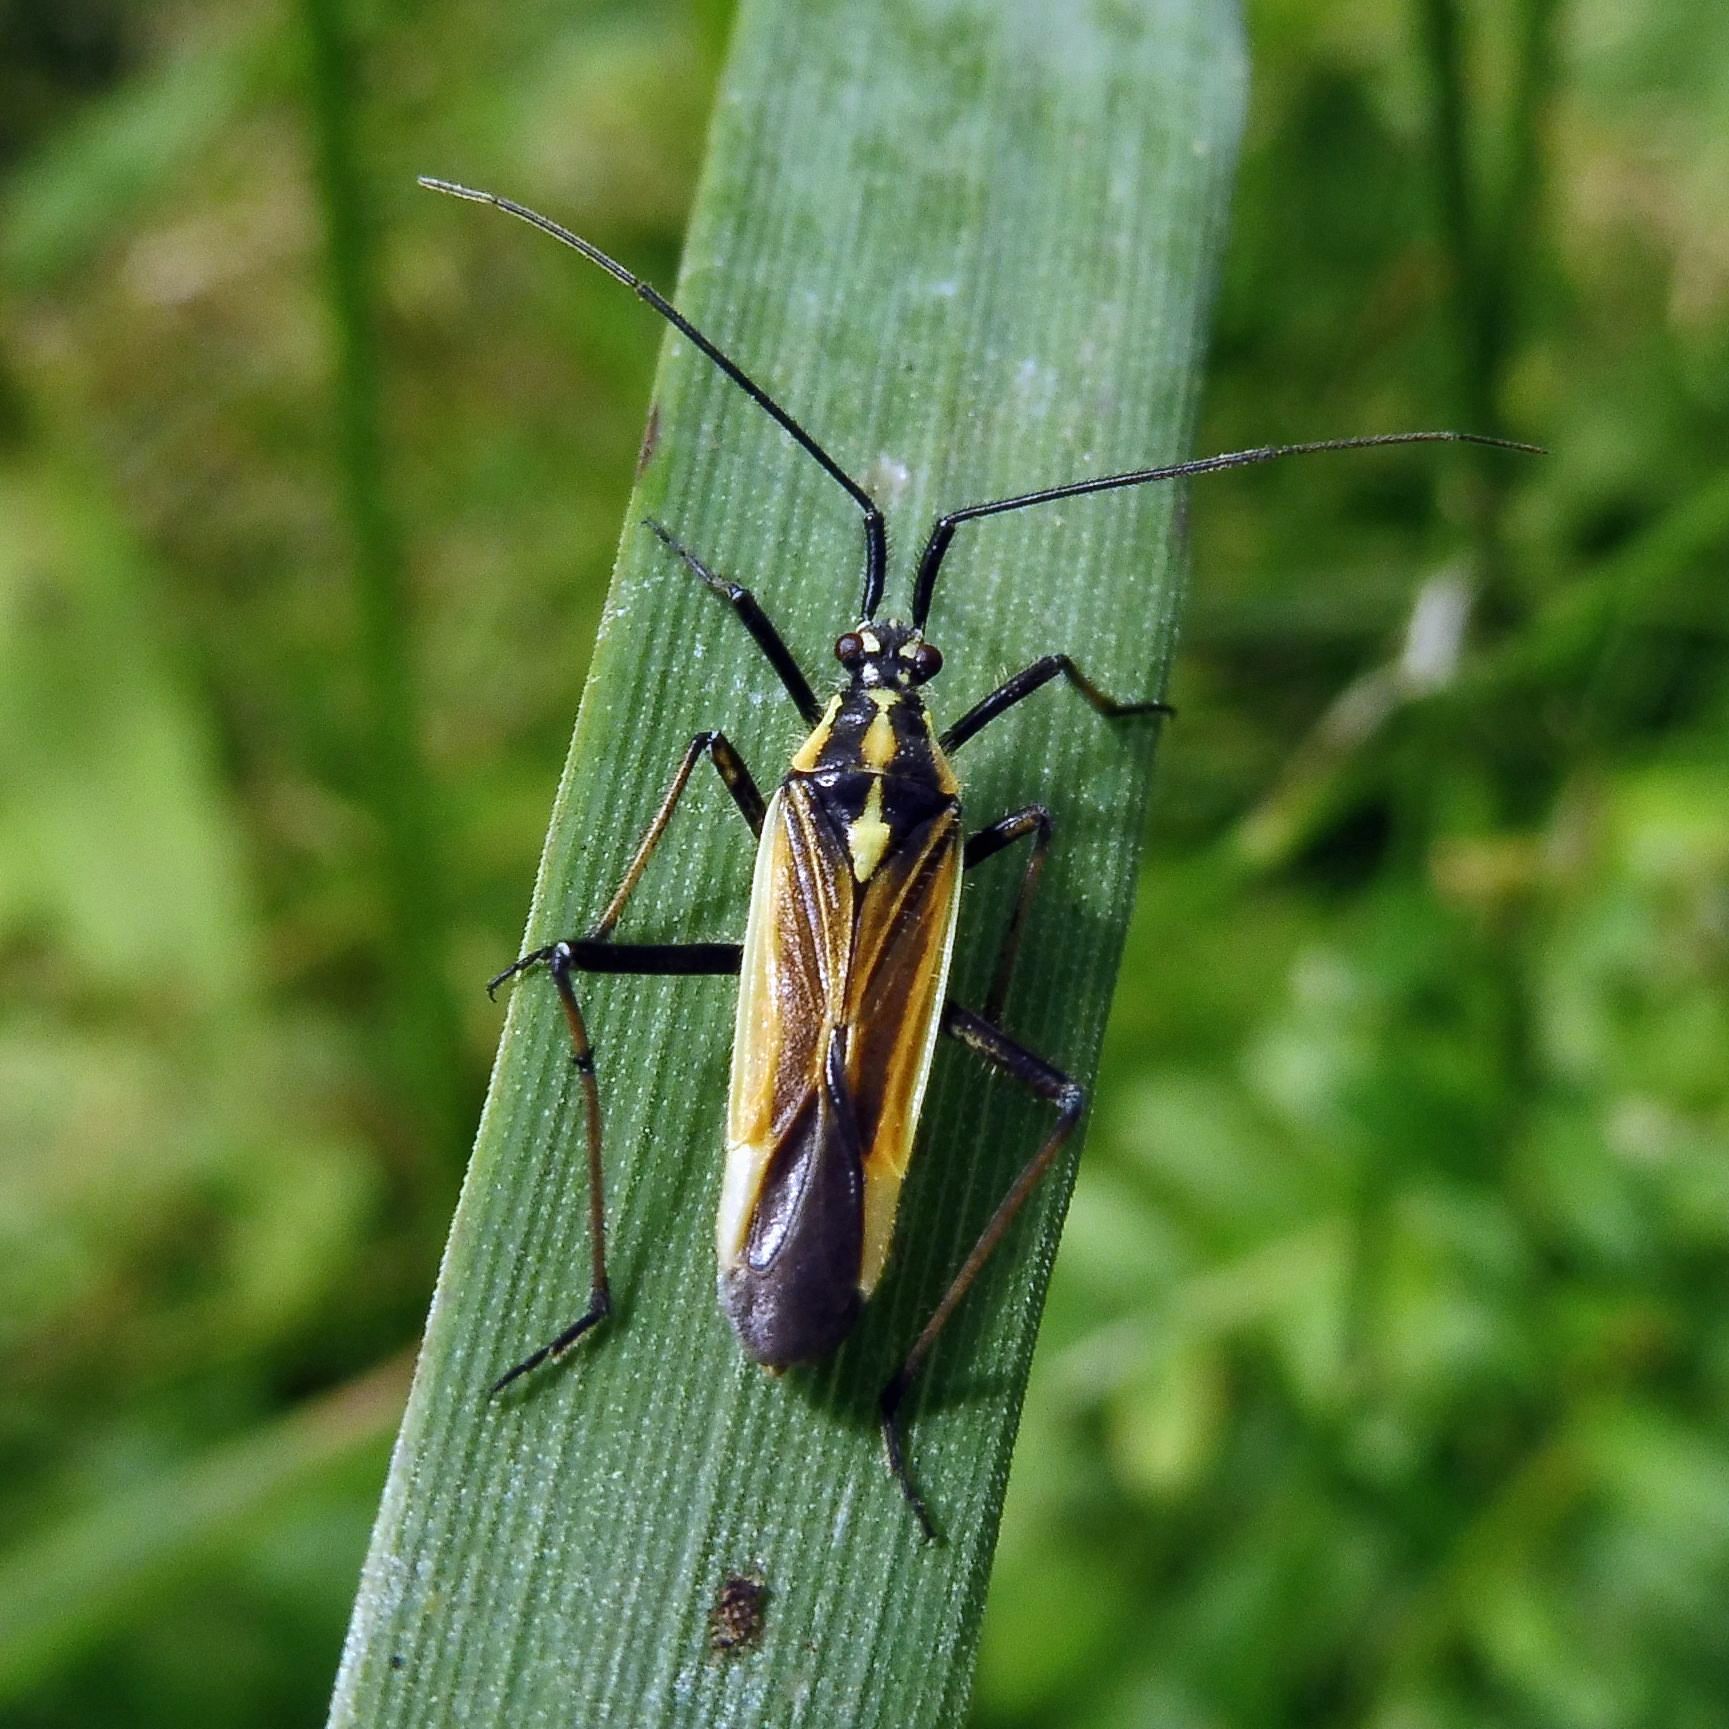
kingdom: Animalia
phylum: Arthropoda
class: Insecta
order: Hemiptera
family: Miridae
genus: Leptopterna
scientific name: Leptopterna dolabrata
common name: Meadow plant bug
